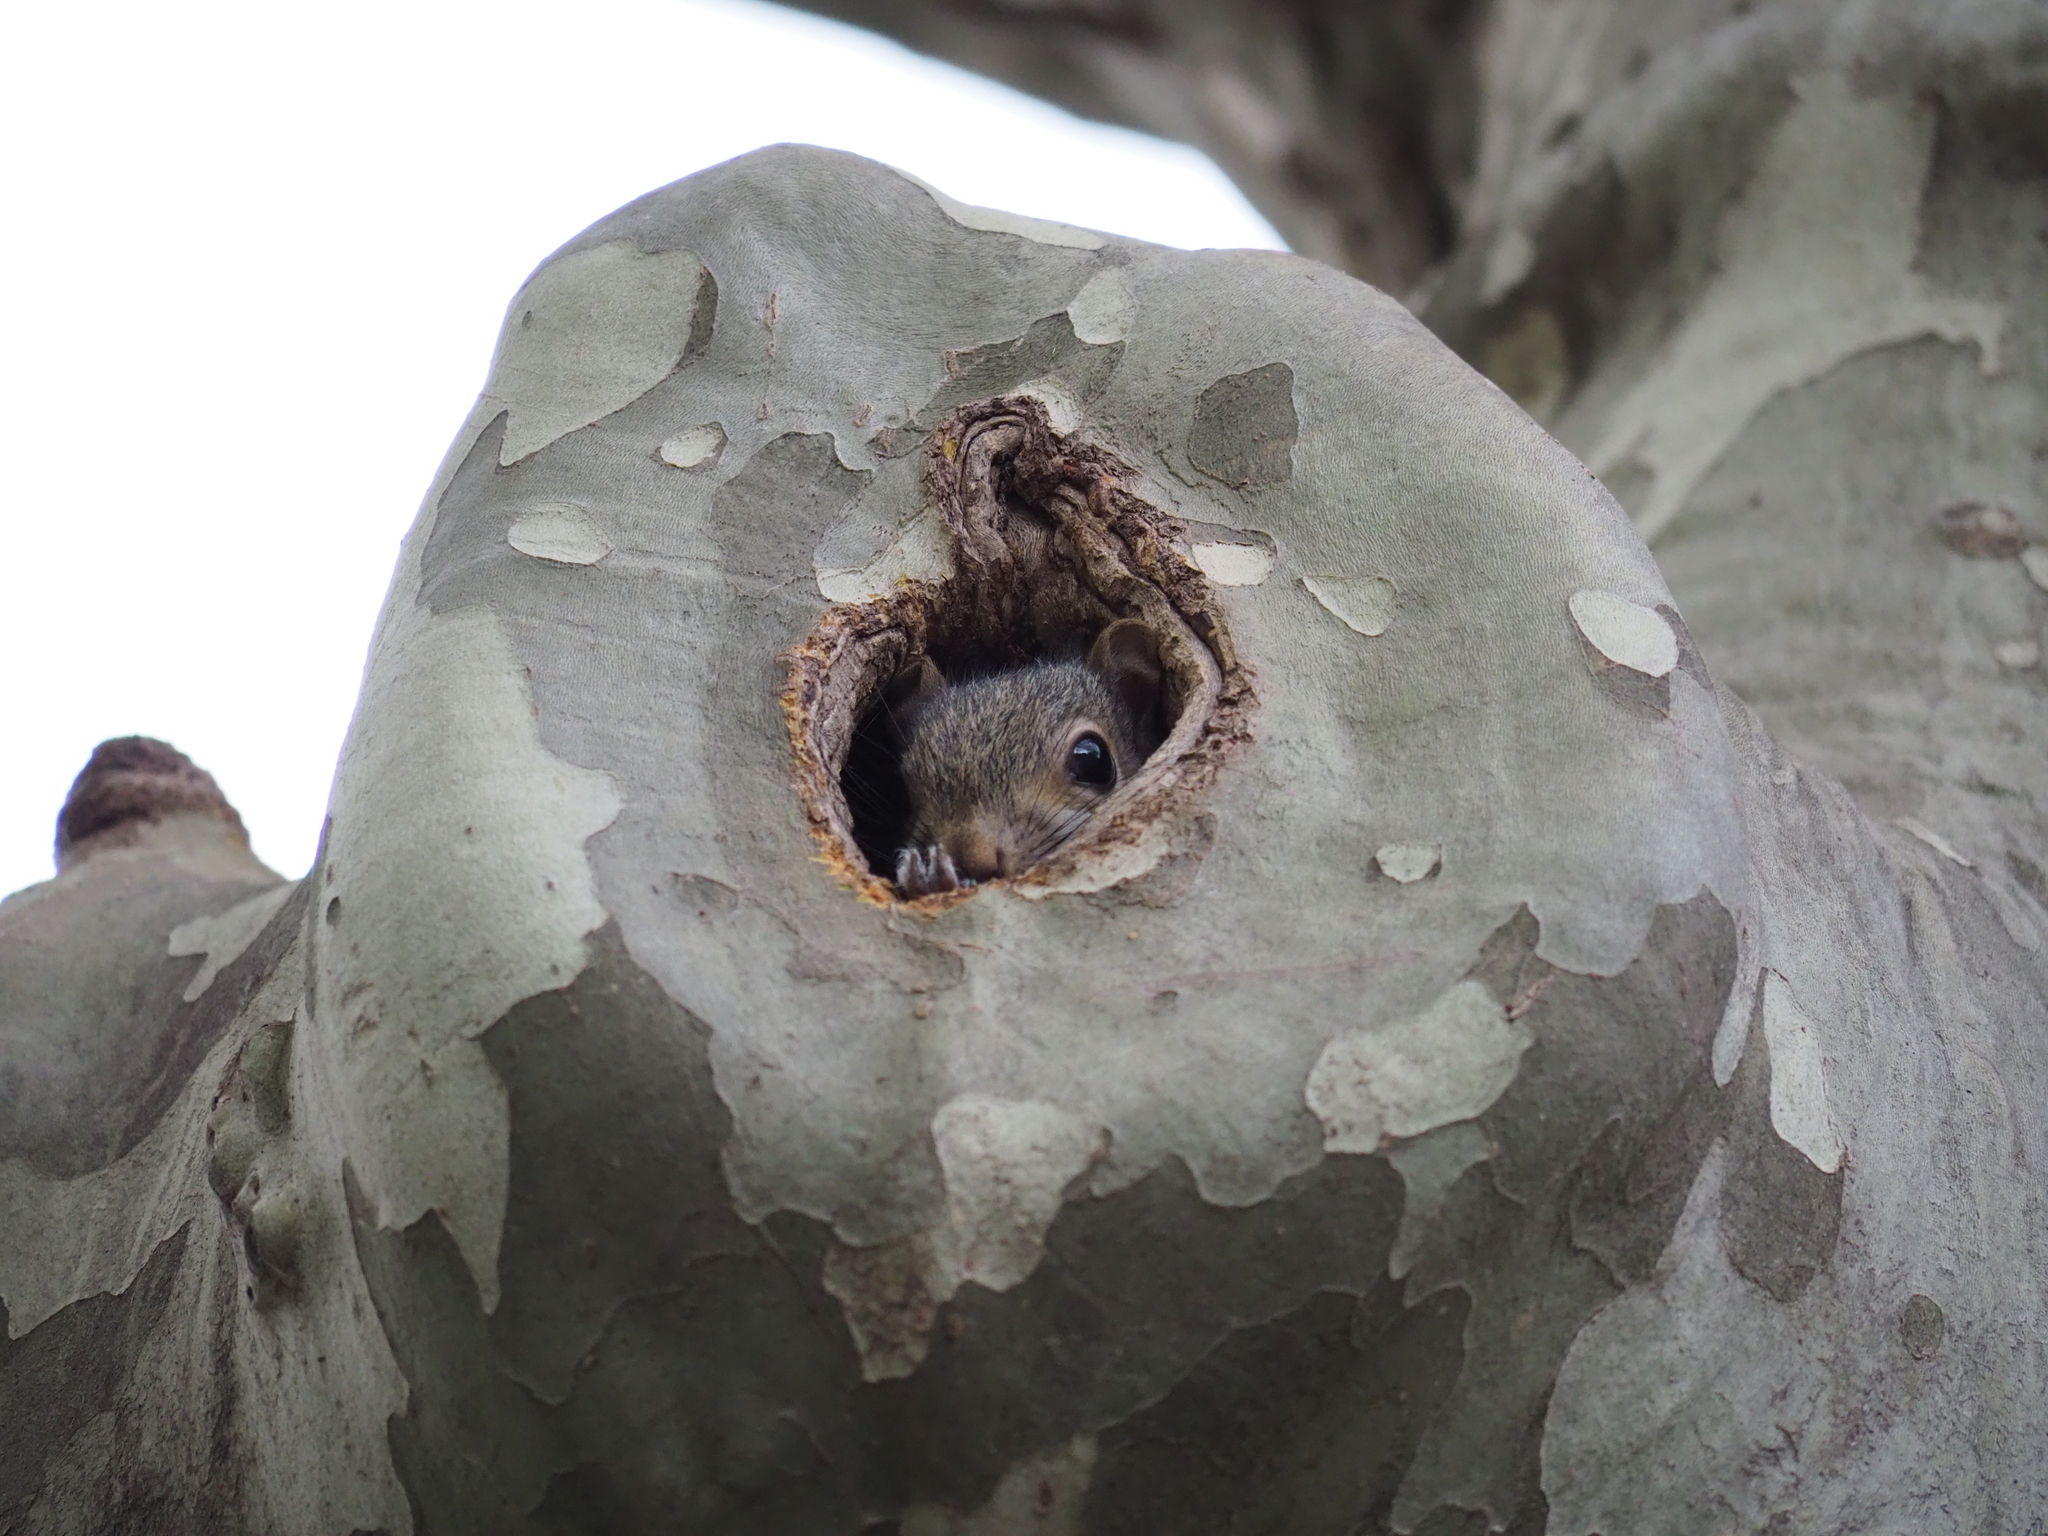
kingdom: Animalia
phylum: Chordata
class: Mammalia
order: Rodentia
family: Sciuridae
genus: Sciurus
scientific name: Sciurus carolinensis
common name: Eastern gray squirrel
